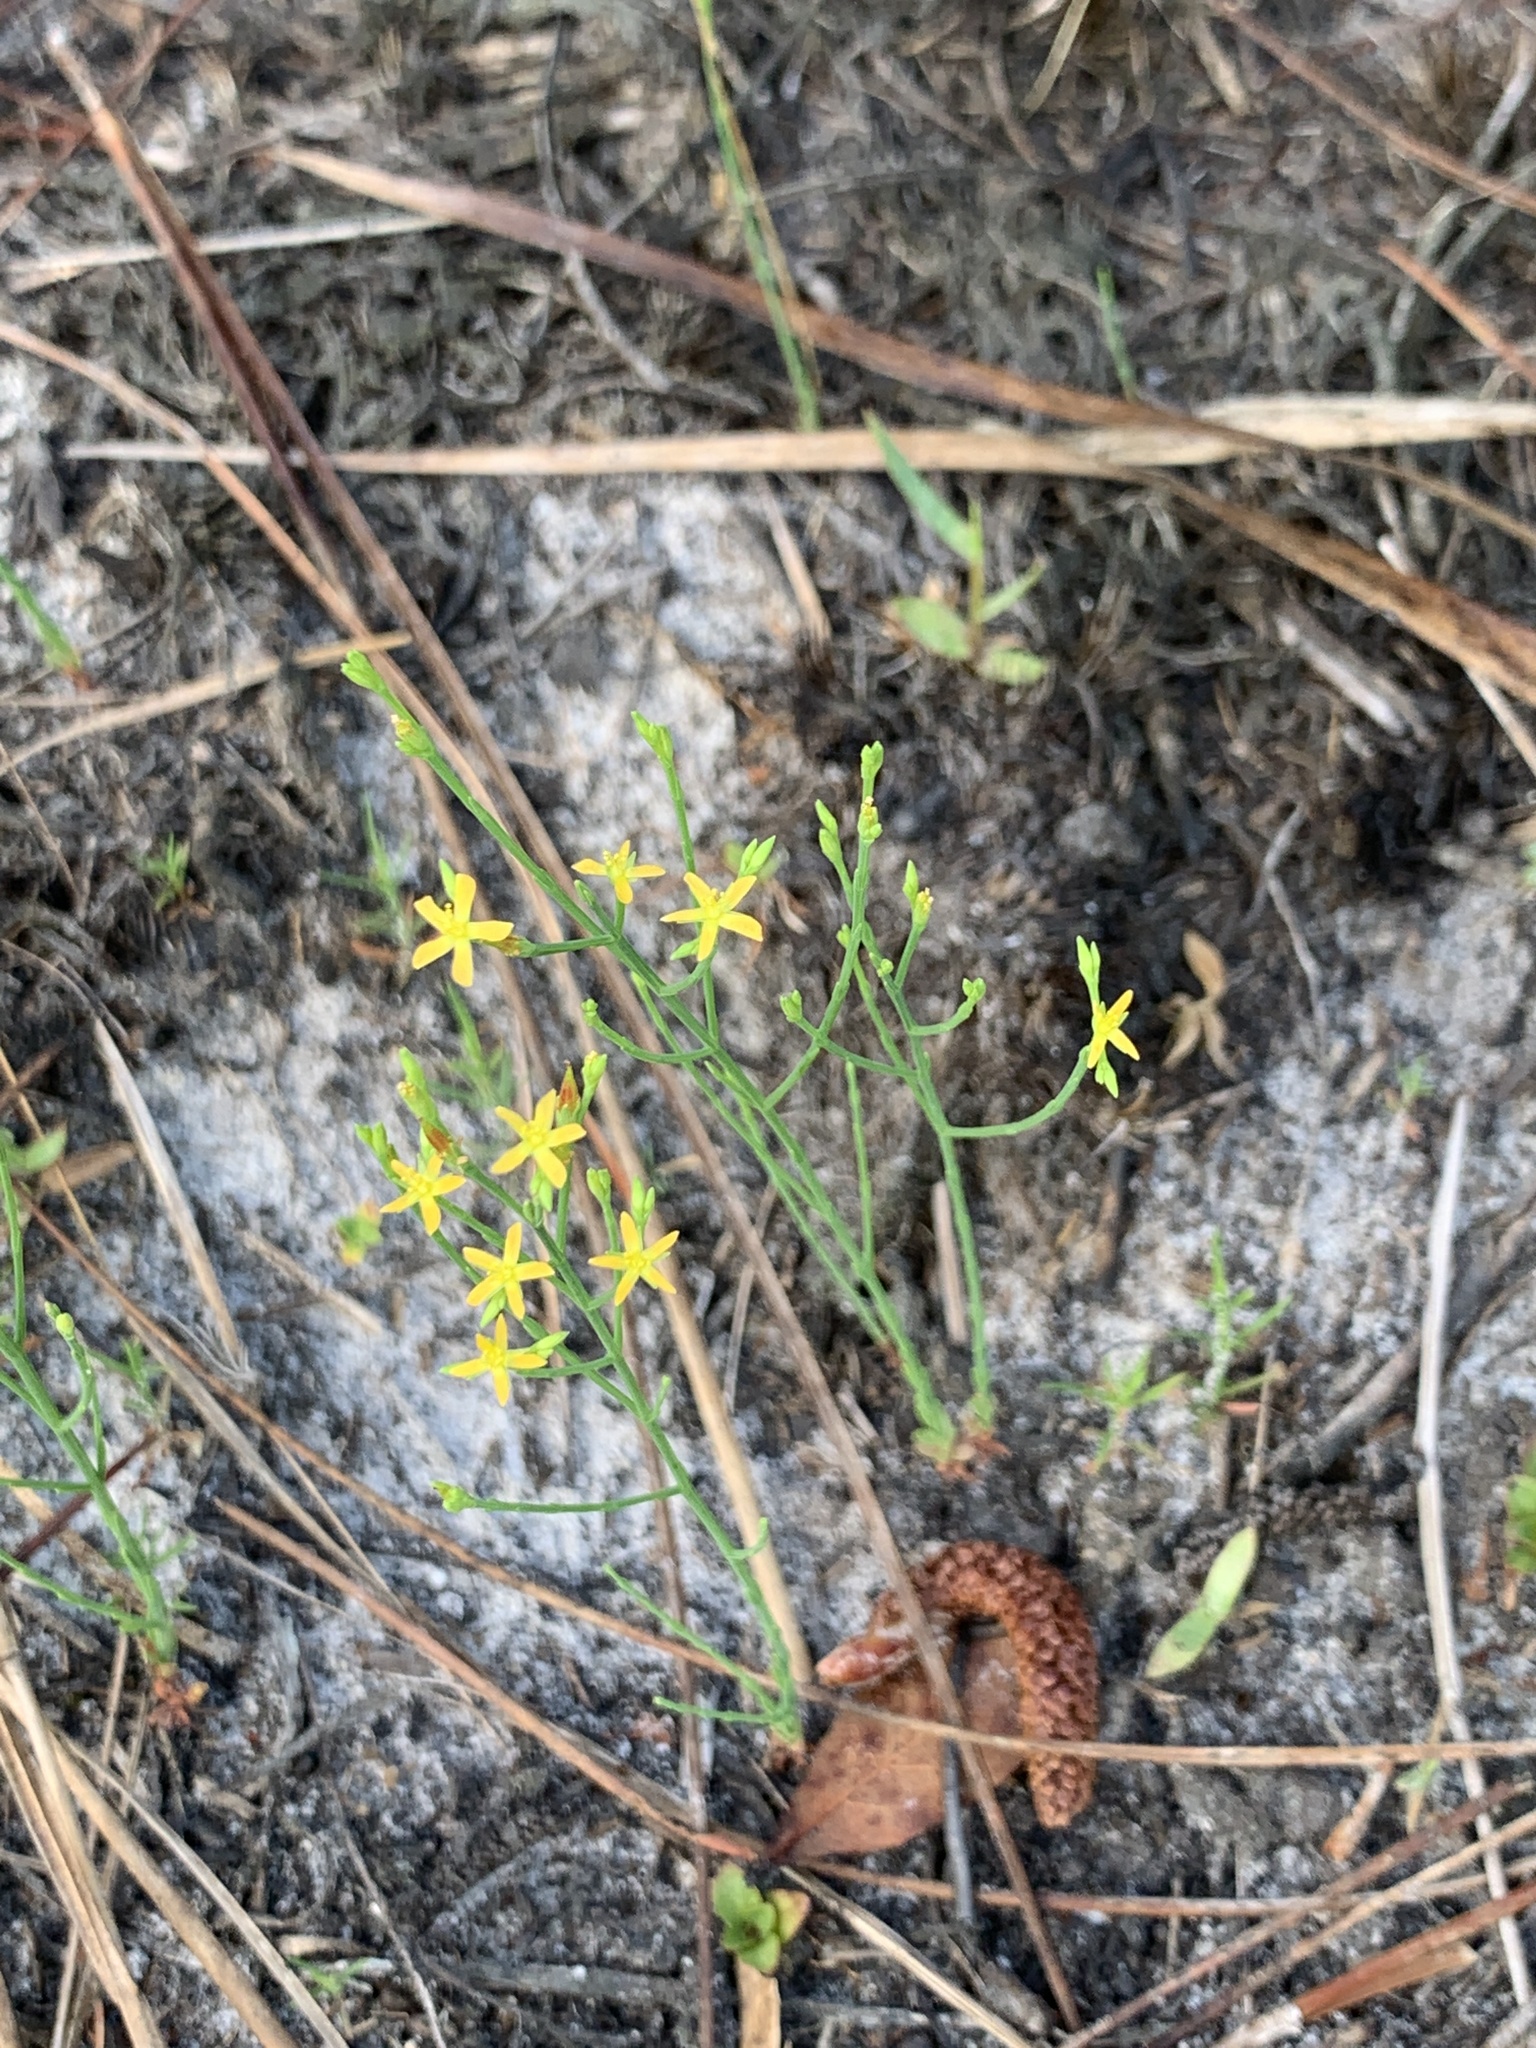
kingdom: Plantae
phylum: Tracheophyta
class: Magnoliopsida
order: Malpighiales
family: Hypericaceae
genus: Hypericum
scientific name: Hypericum gentianoides
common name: Gentian-leaved st. john's-wort
